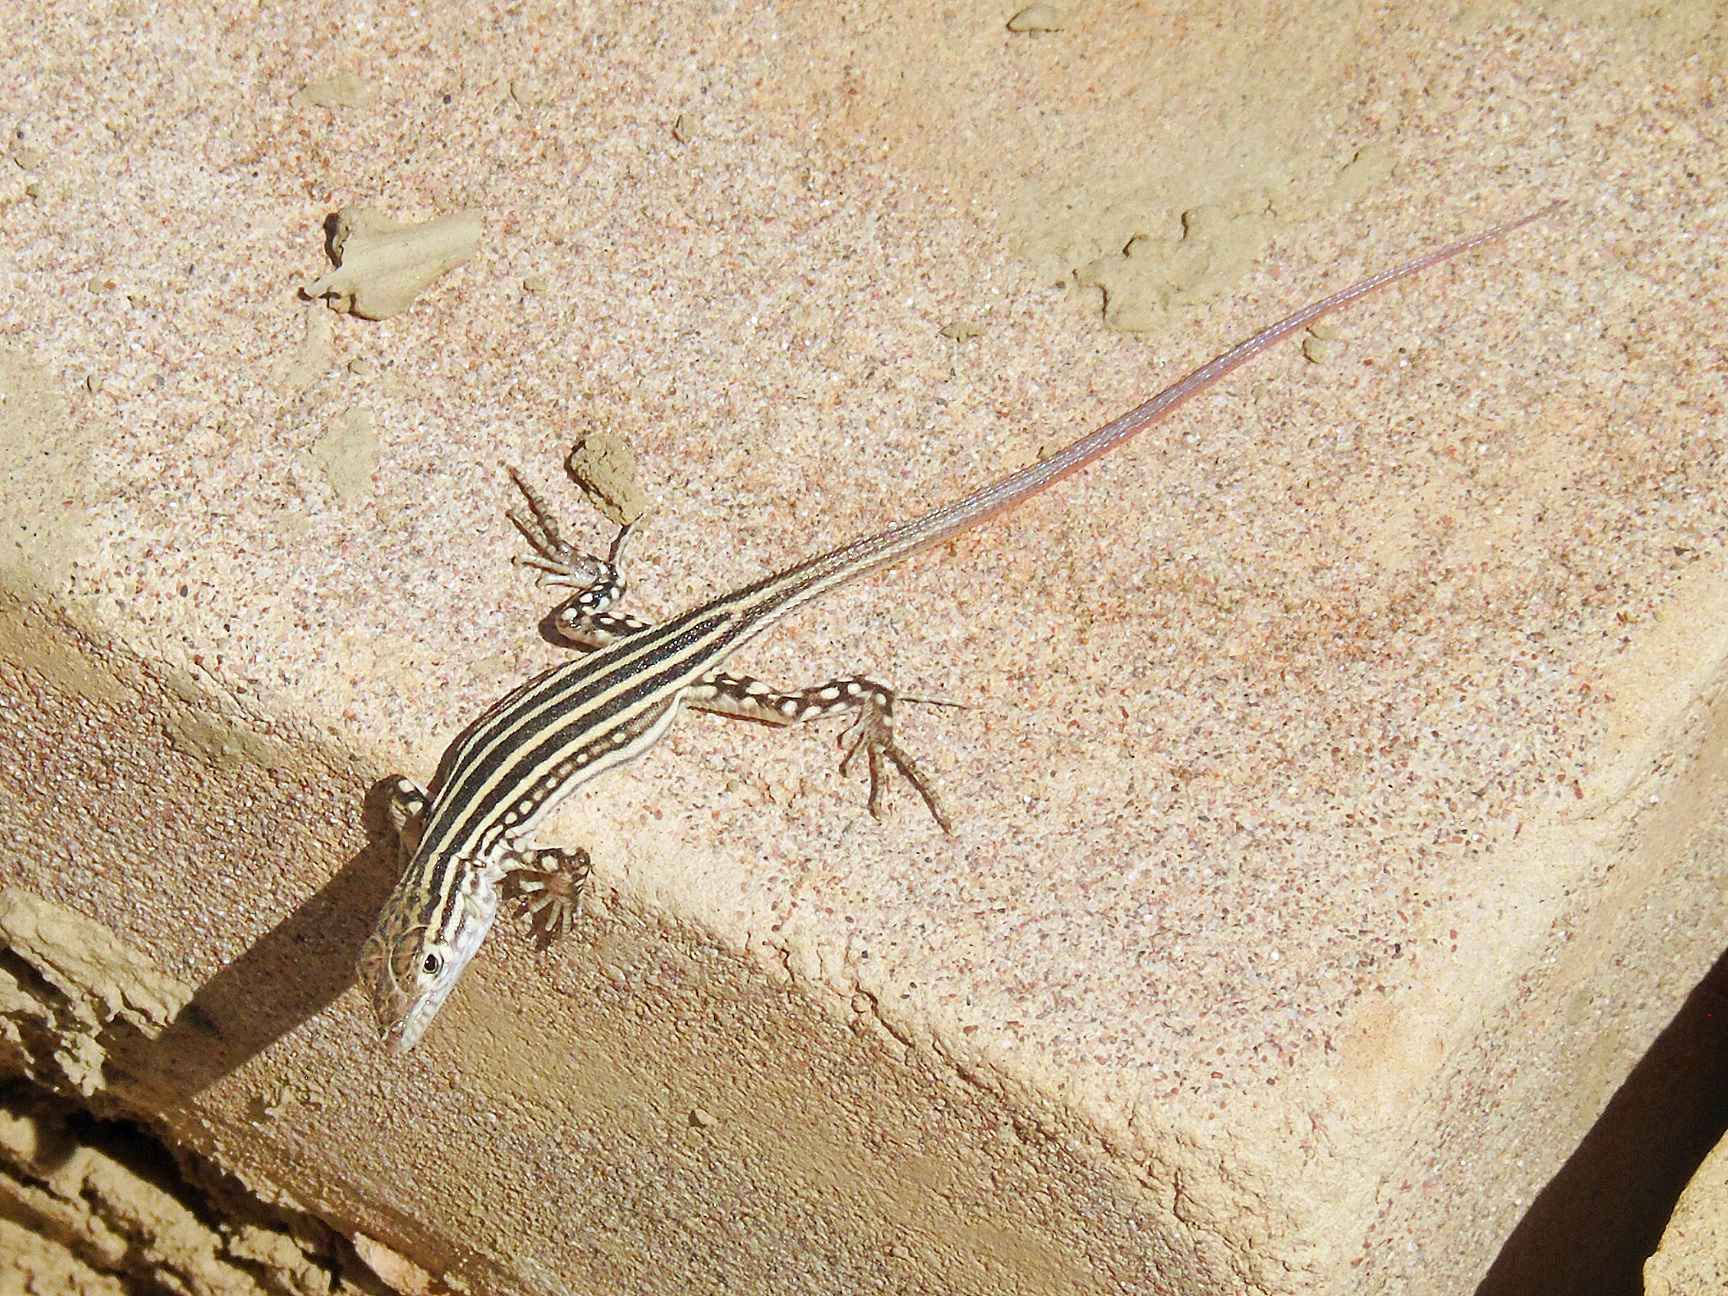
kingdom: Animalia
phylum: Chordata
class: Squamata
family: Lacertidae
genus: Eremias
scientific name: Eremias velox
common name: Central asian racerunner
